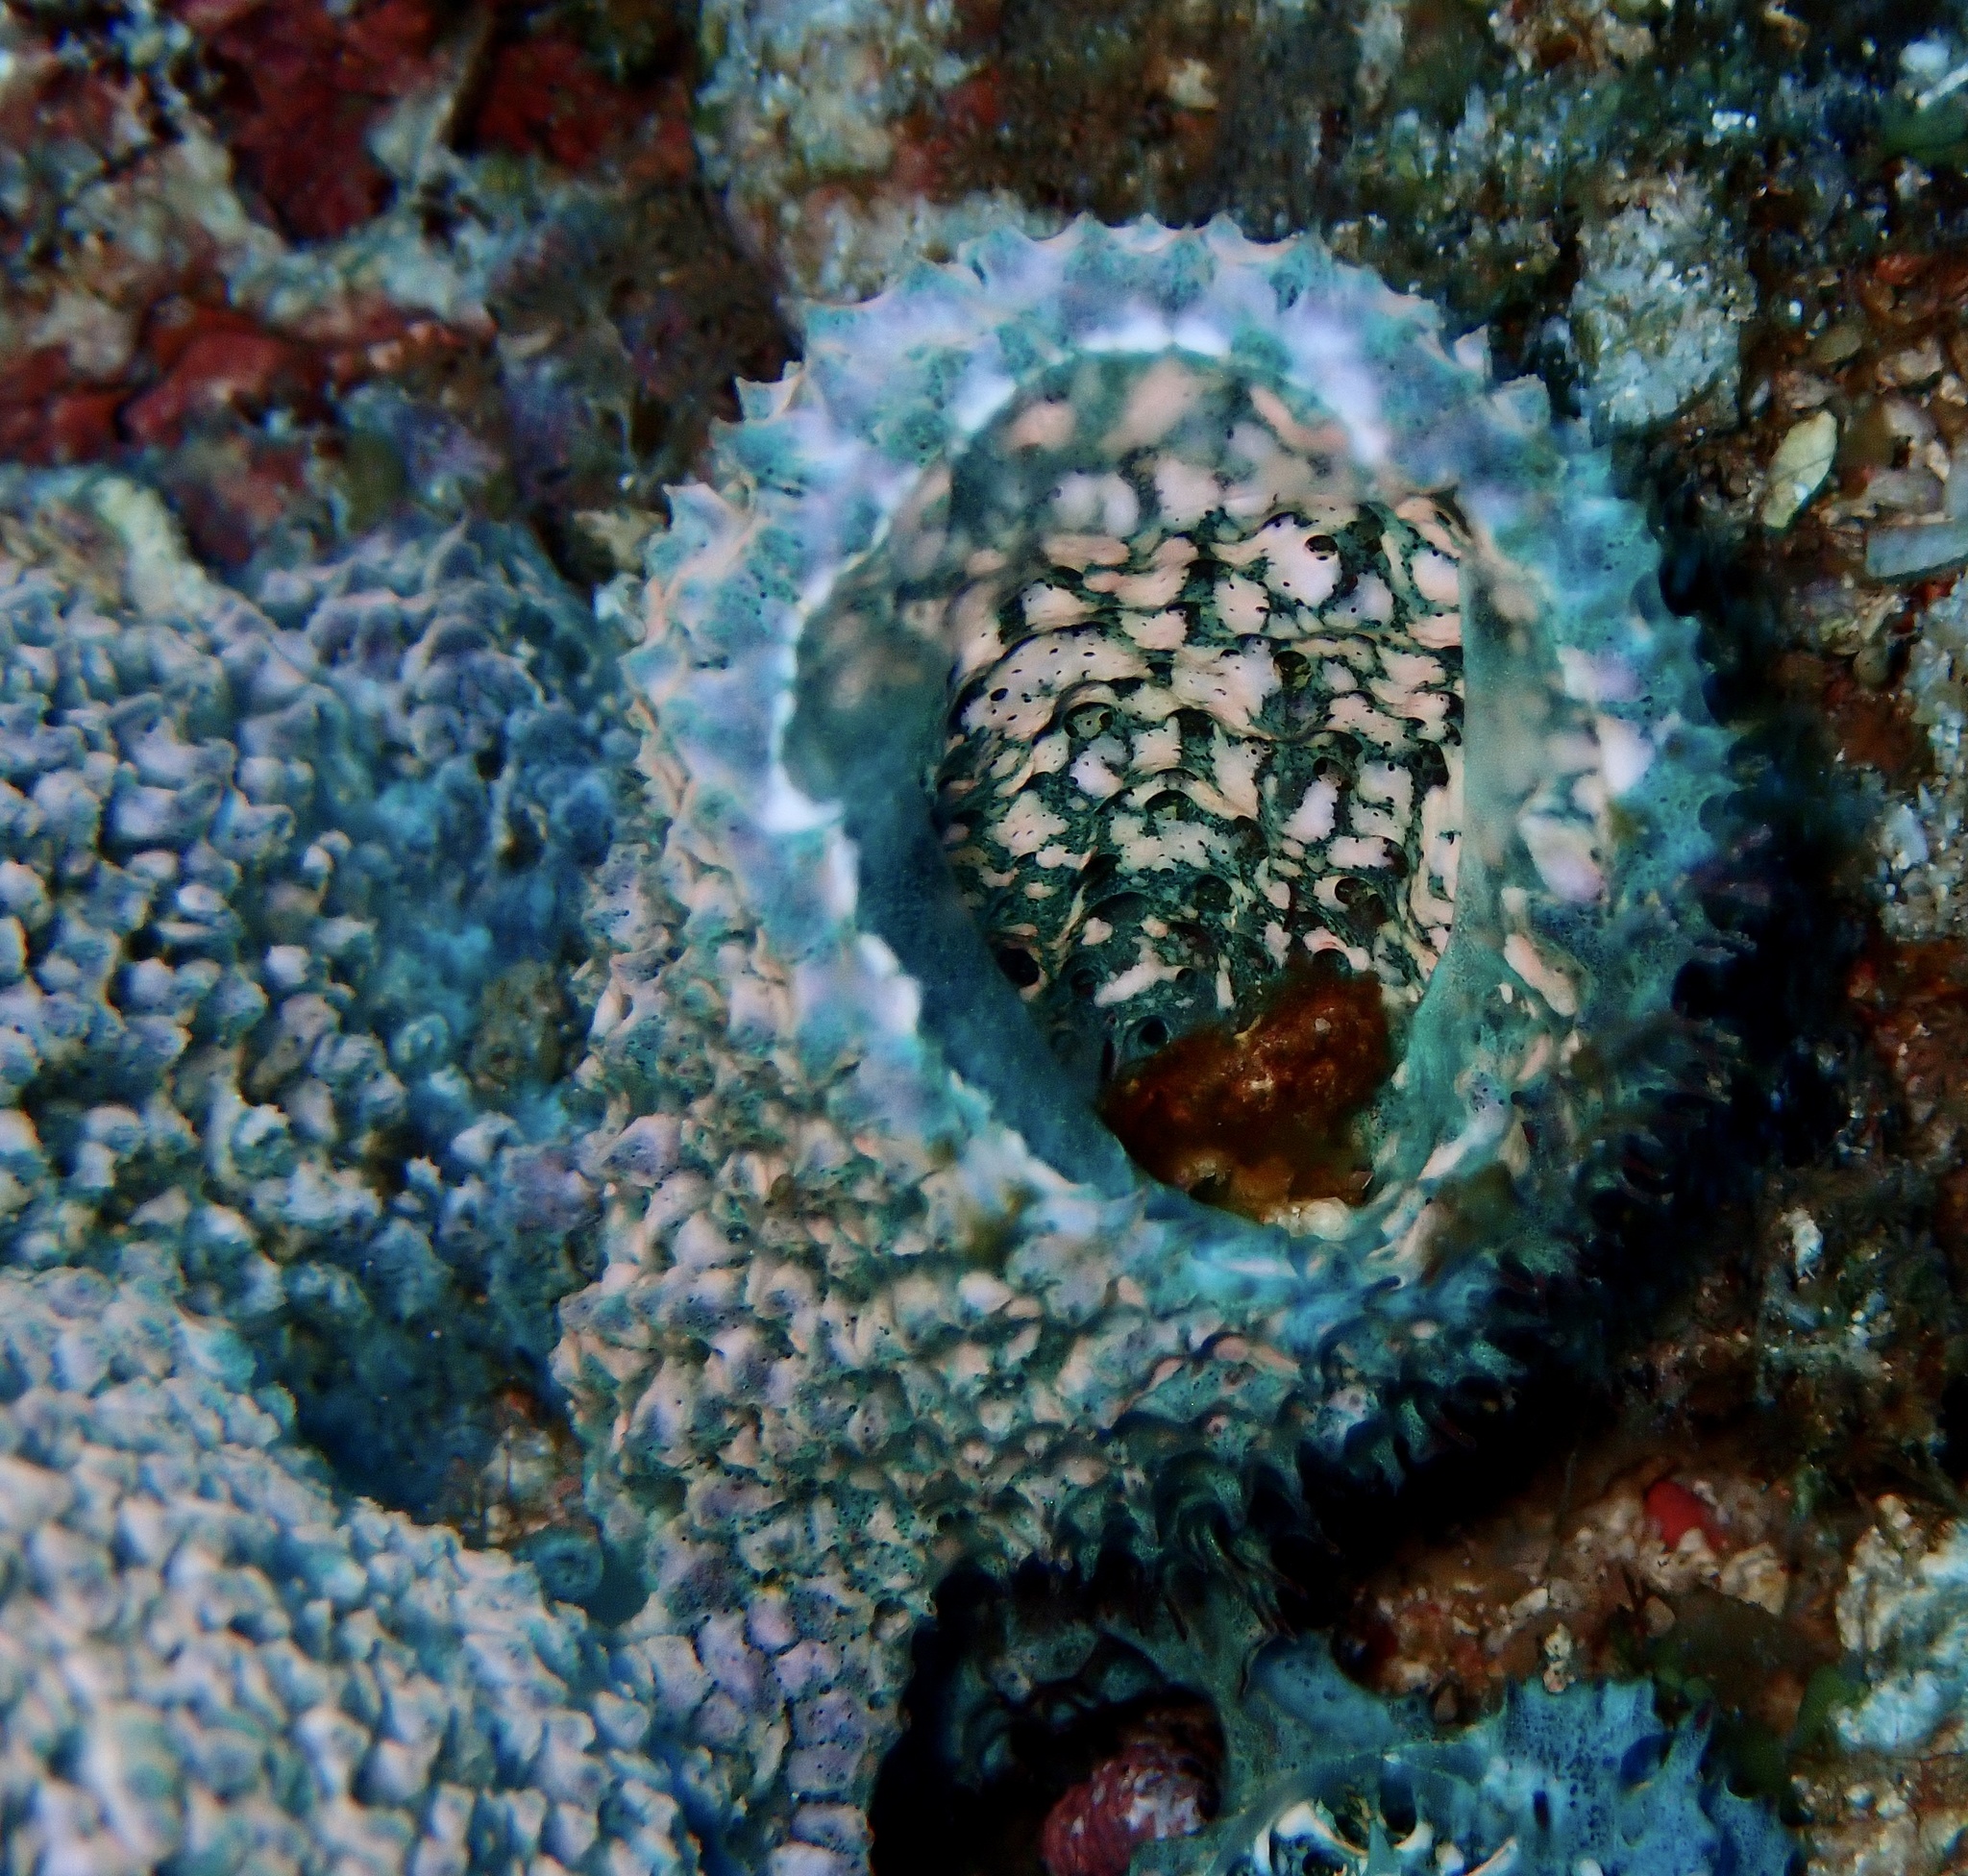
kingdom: Animalia
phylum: Porifera
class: Demospongiae
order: Poecilosclerida
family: Mycalidae
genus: Mycale
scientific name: Mycale regularis
